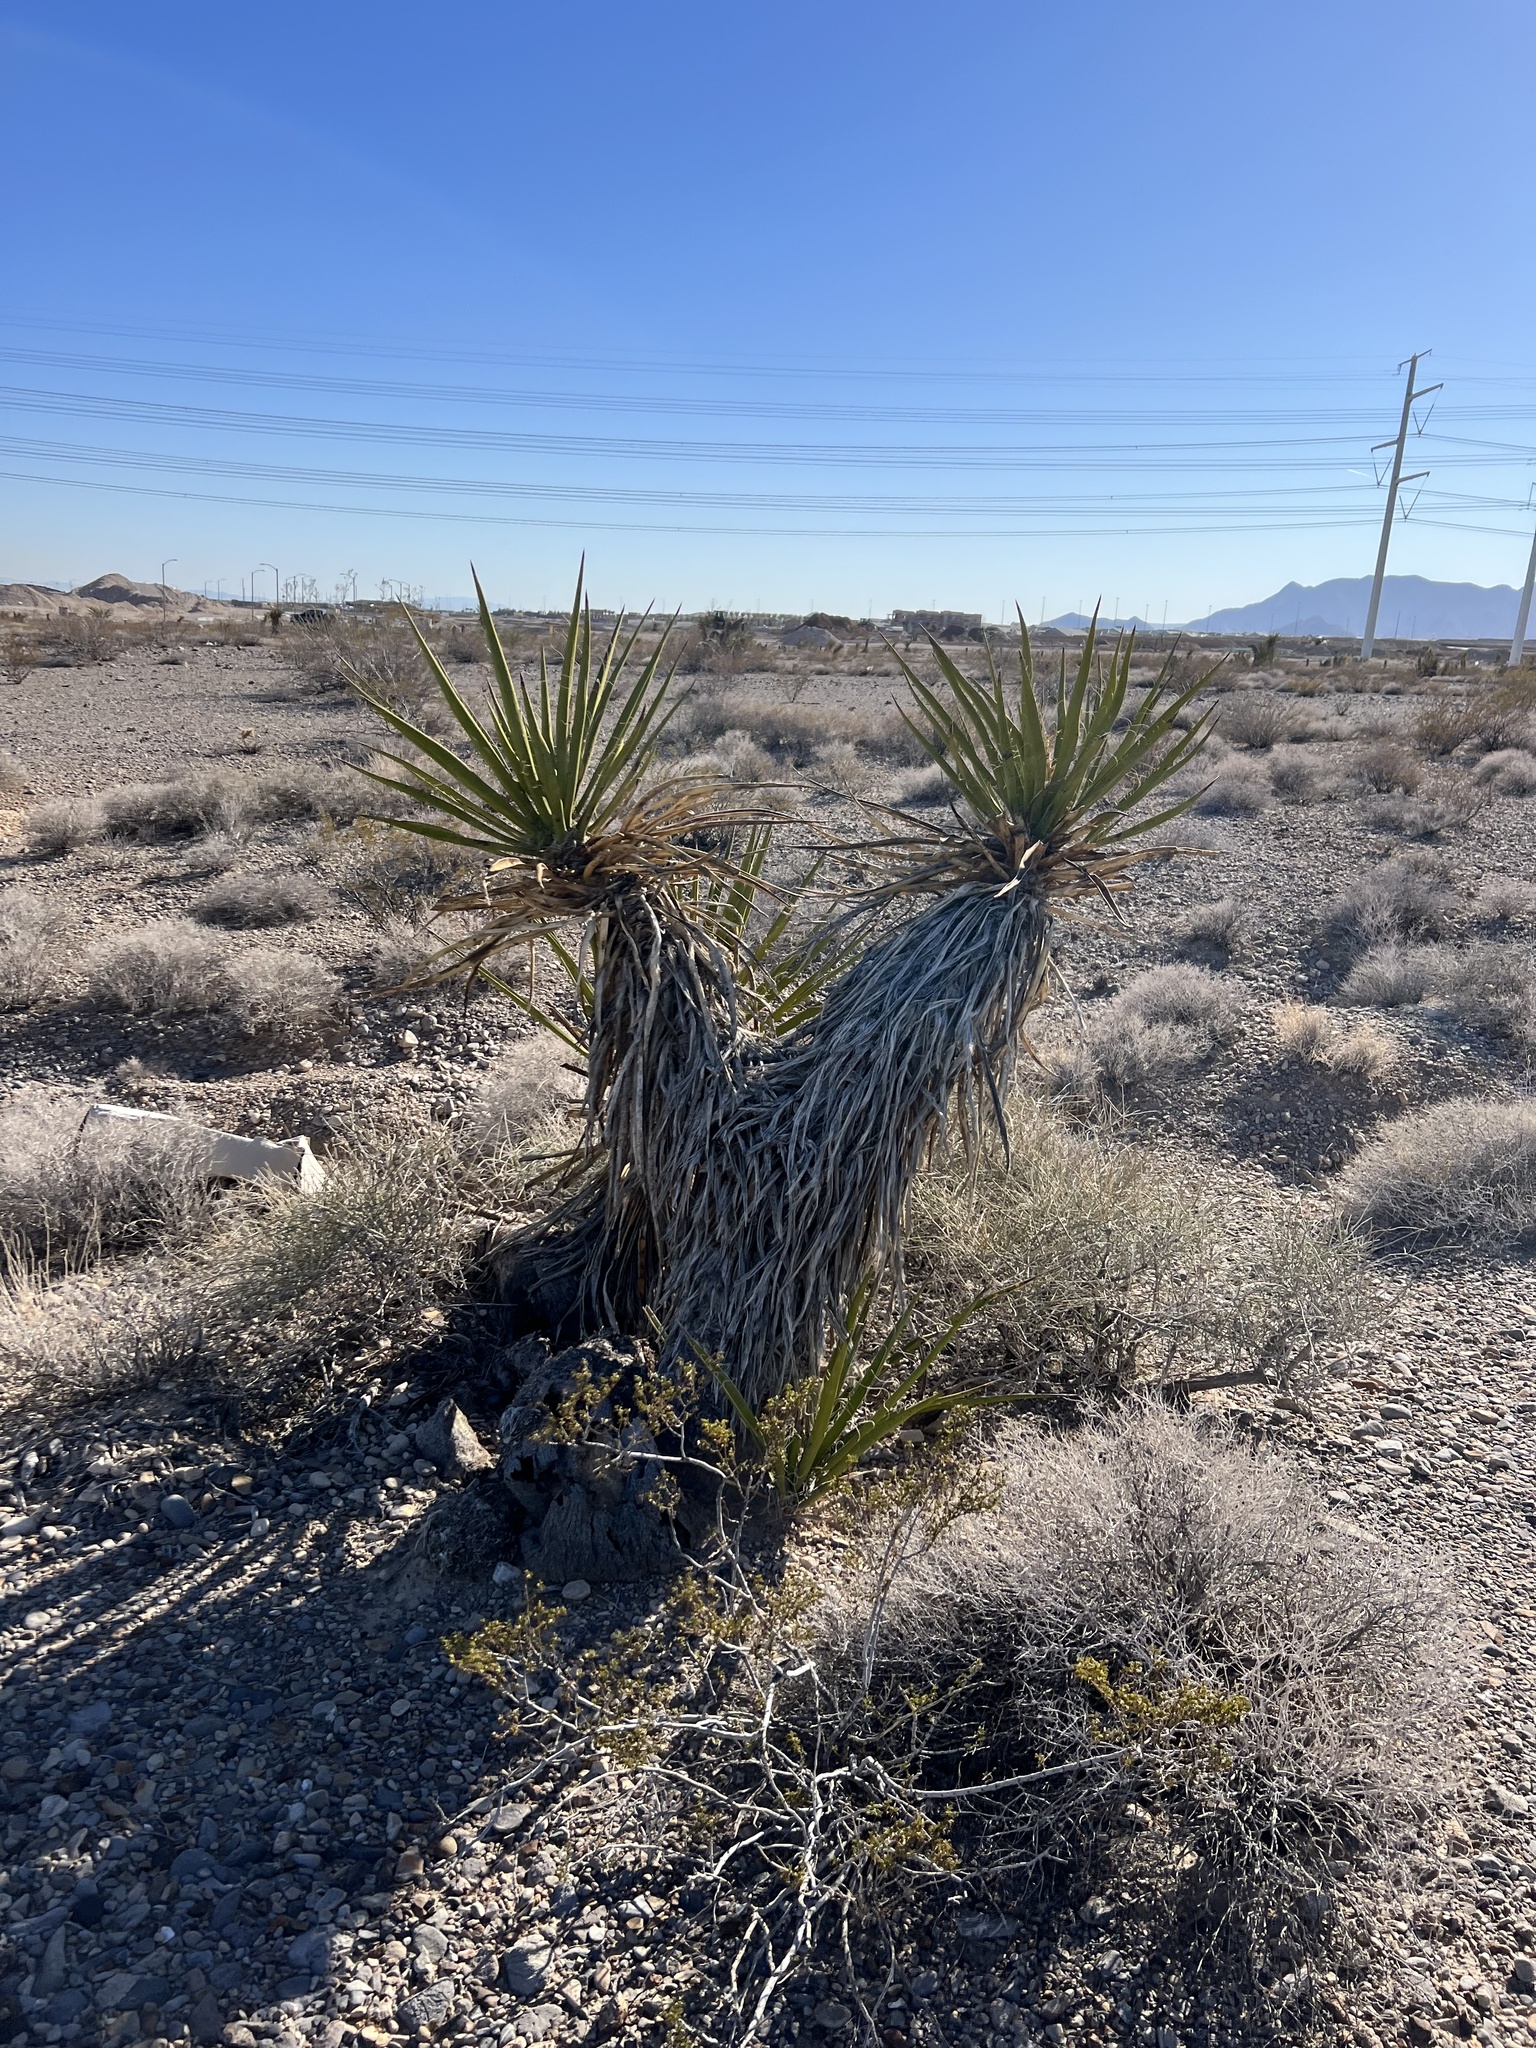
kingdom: Plantae
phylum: Tracheophyta
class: Liliopsida
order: Asparagales
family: Asparagaceae
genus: Yucca
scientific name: Yucca schidigera
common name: Mojave yucca
